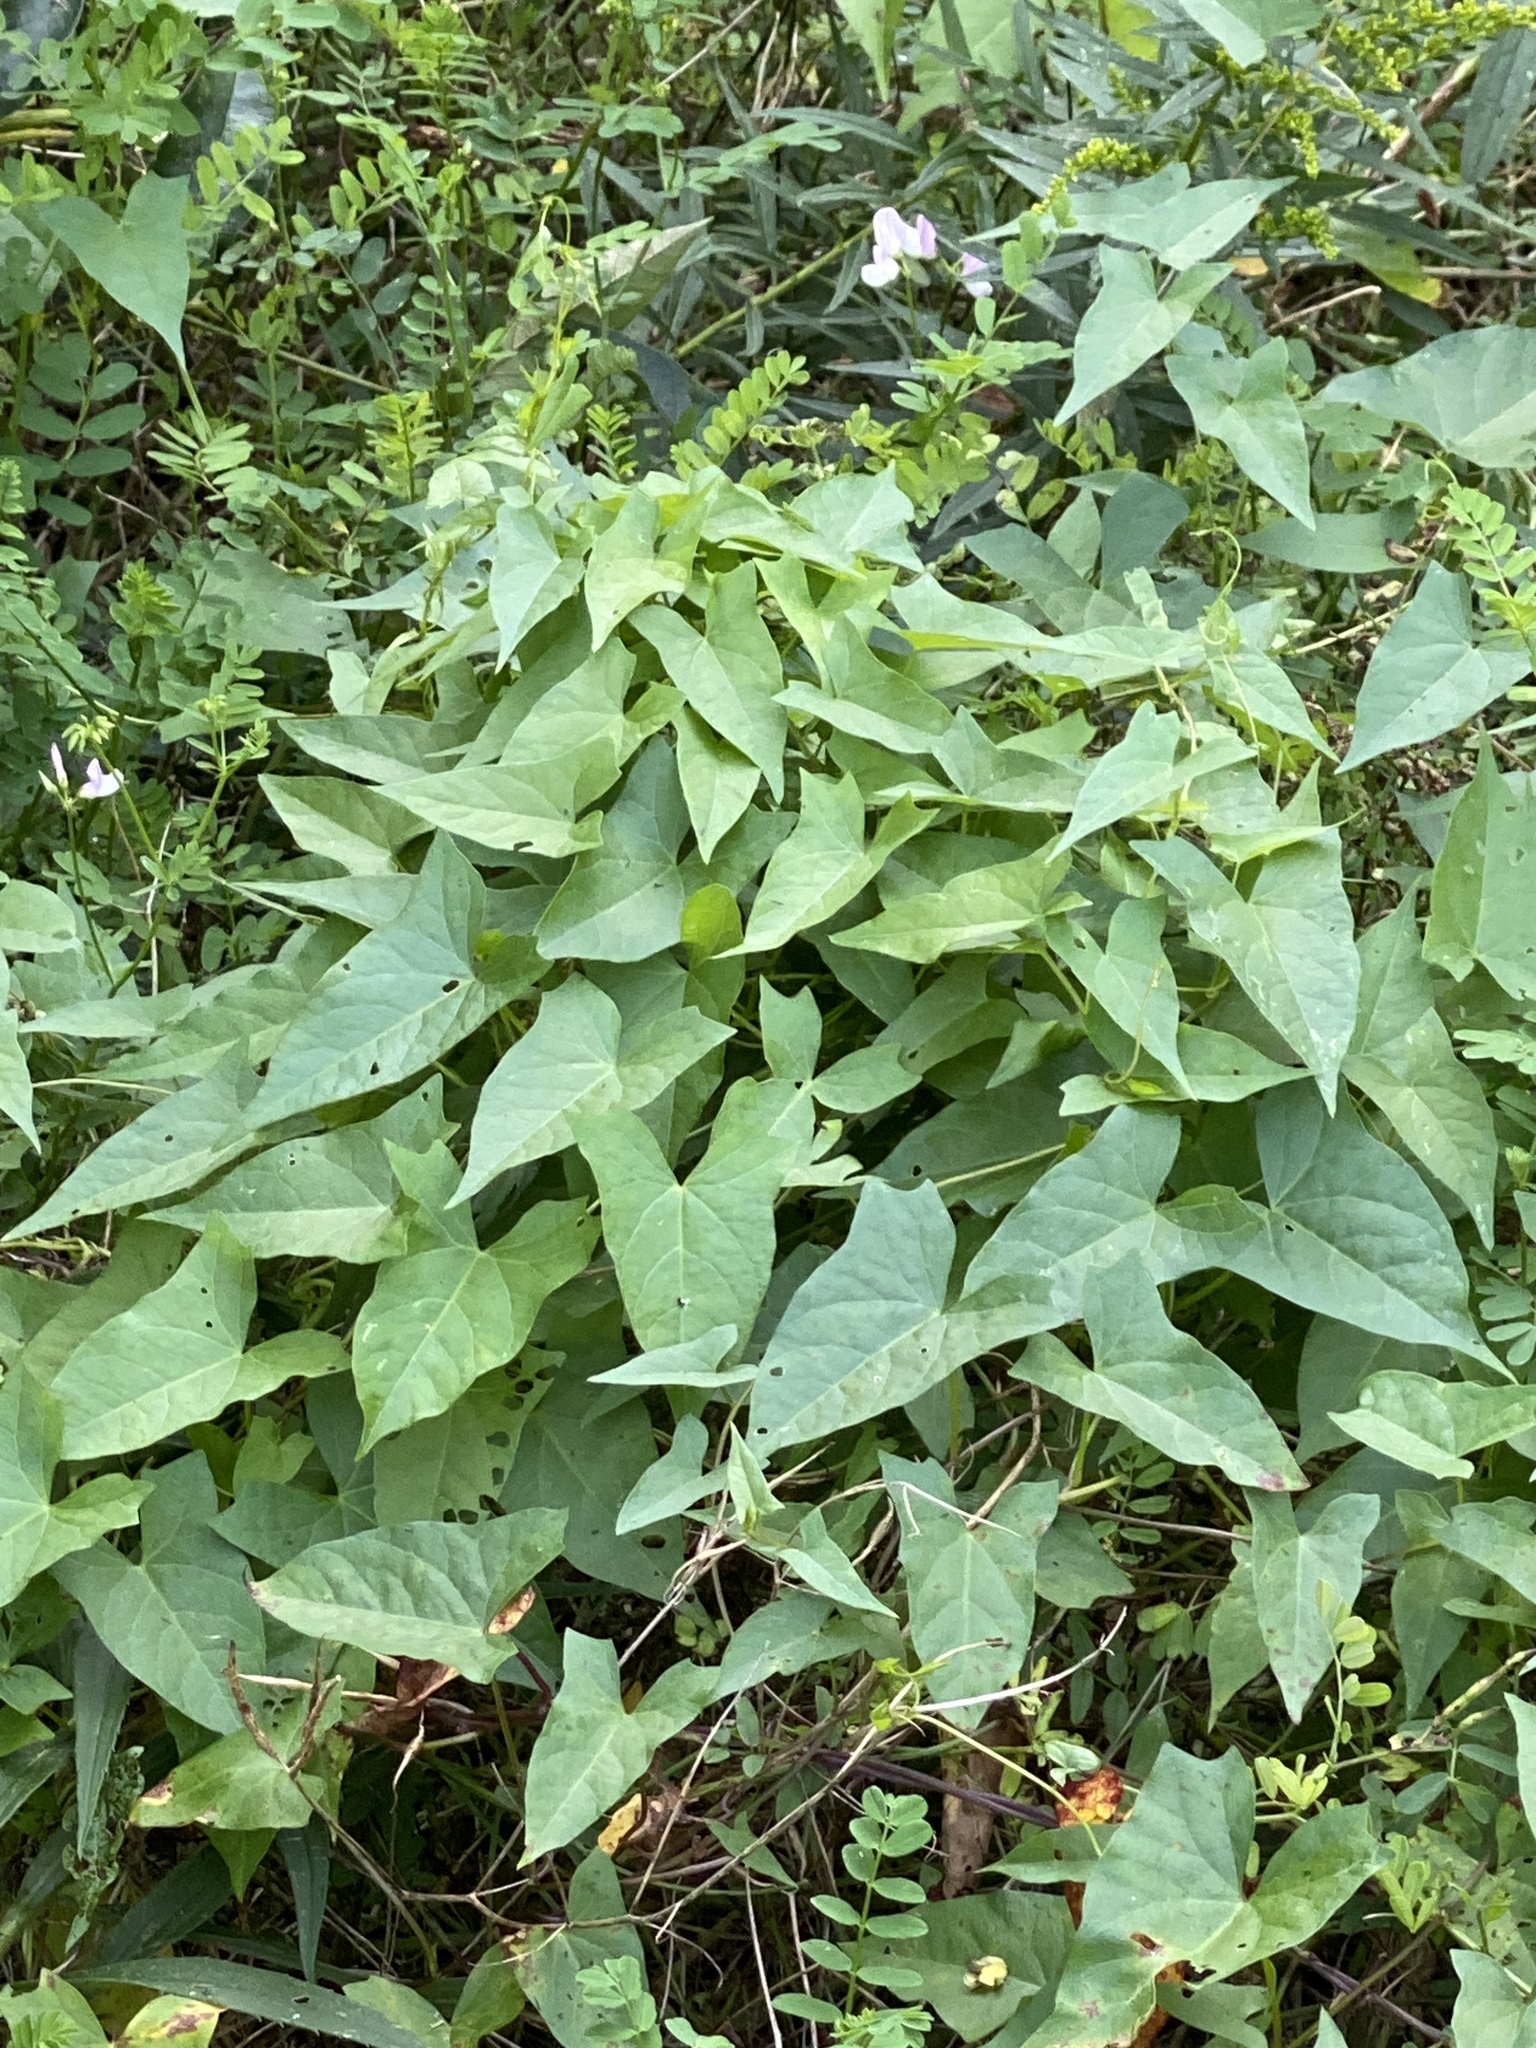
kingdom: Plantae
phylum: Tracheophyta
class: Magnoliopsida
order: Solanales
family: Convolvulaceae
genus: Calystegia
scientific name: Calystegia sepium
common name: Hedge bindweed
